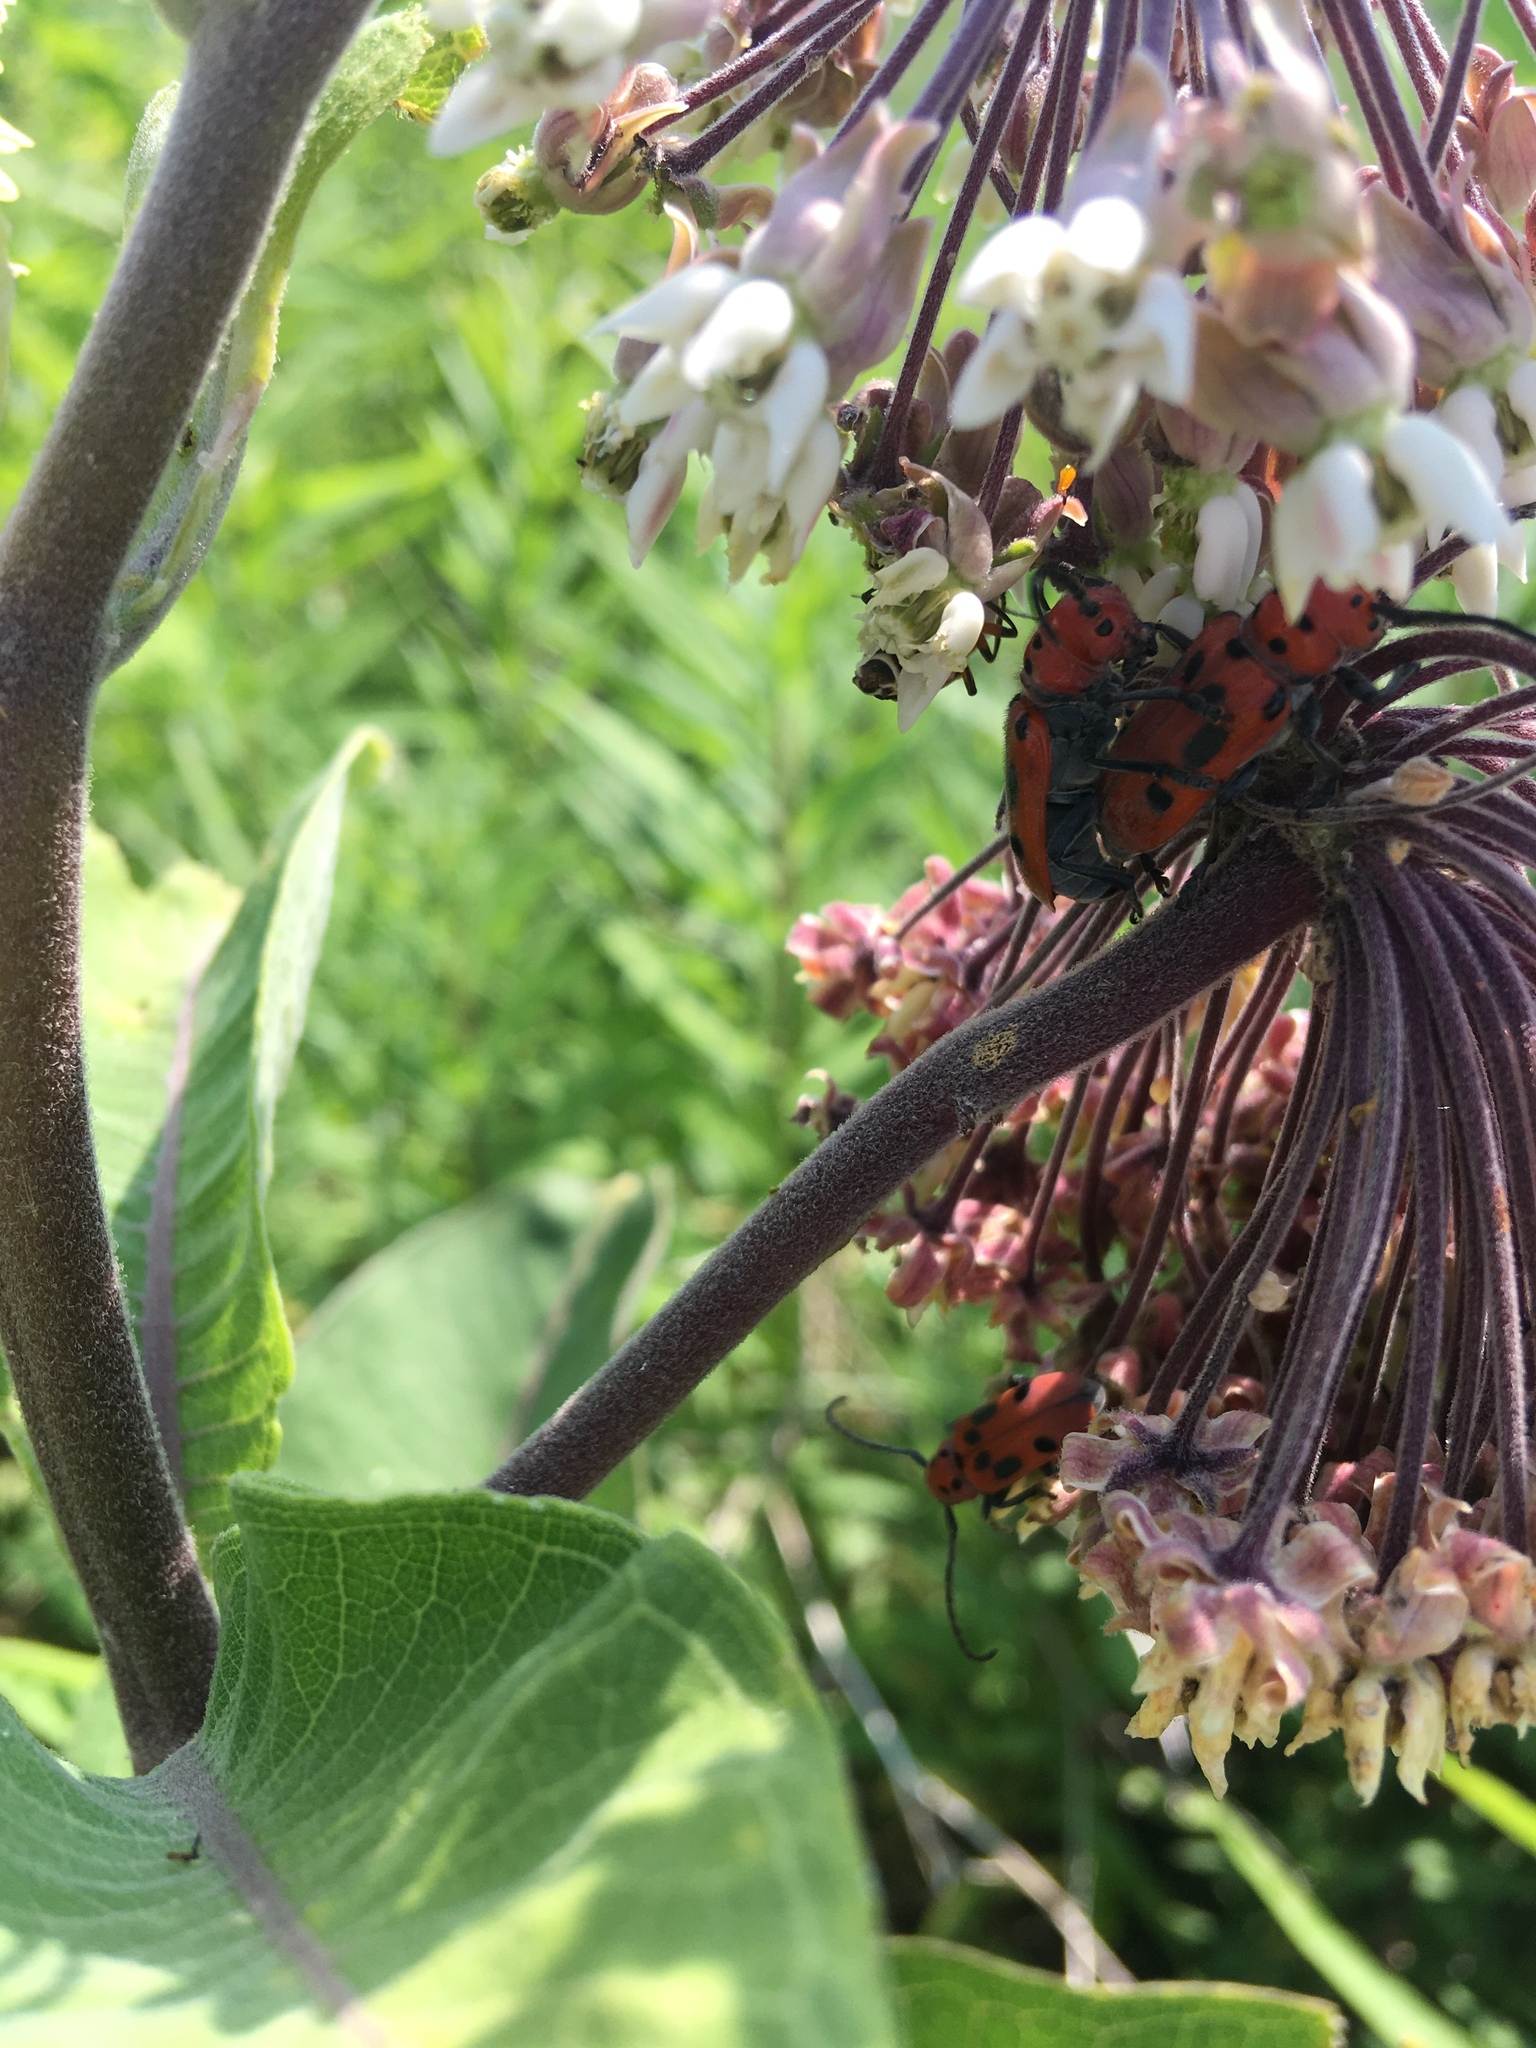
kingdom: Animalia
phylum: Arthropoda
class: Insecta
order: Coleoptera
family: Cerambycidae
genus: Tetraopes
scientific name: Tetraopes tetrophthalmus
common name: Red milkweed beetle
